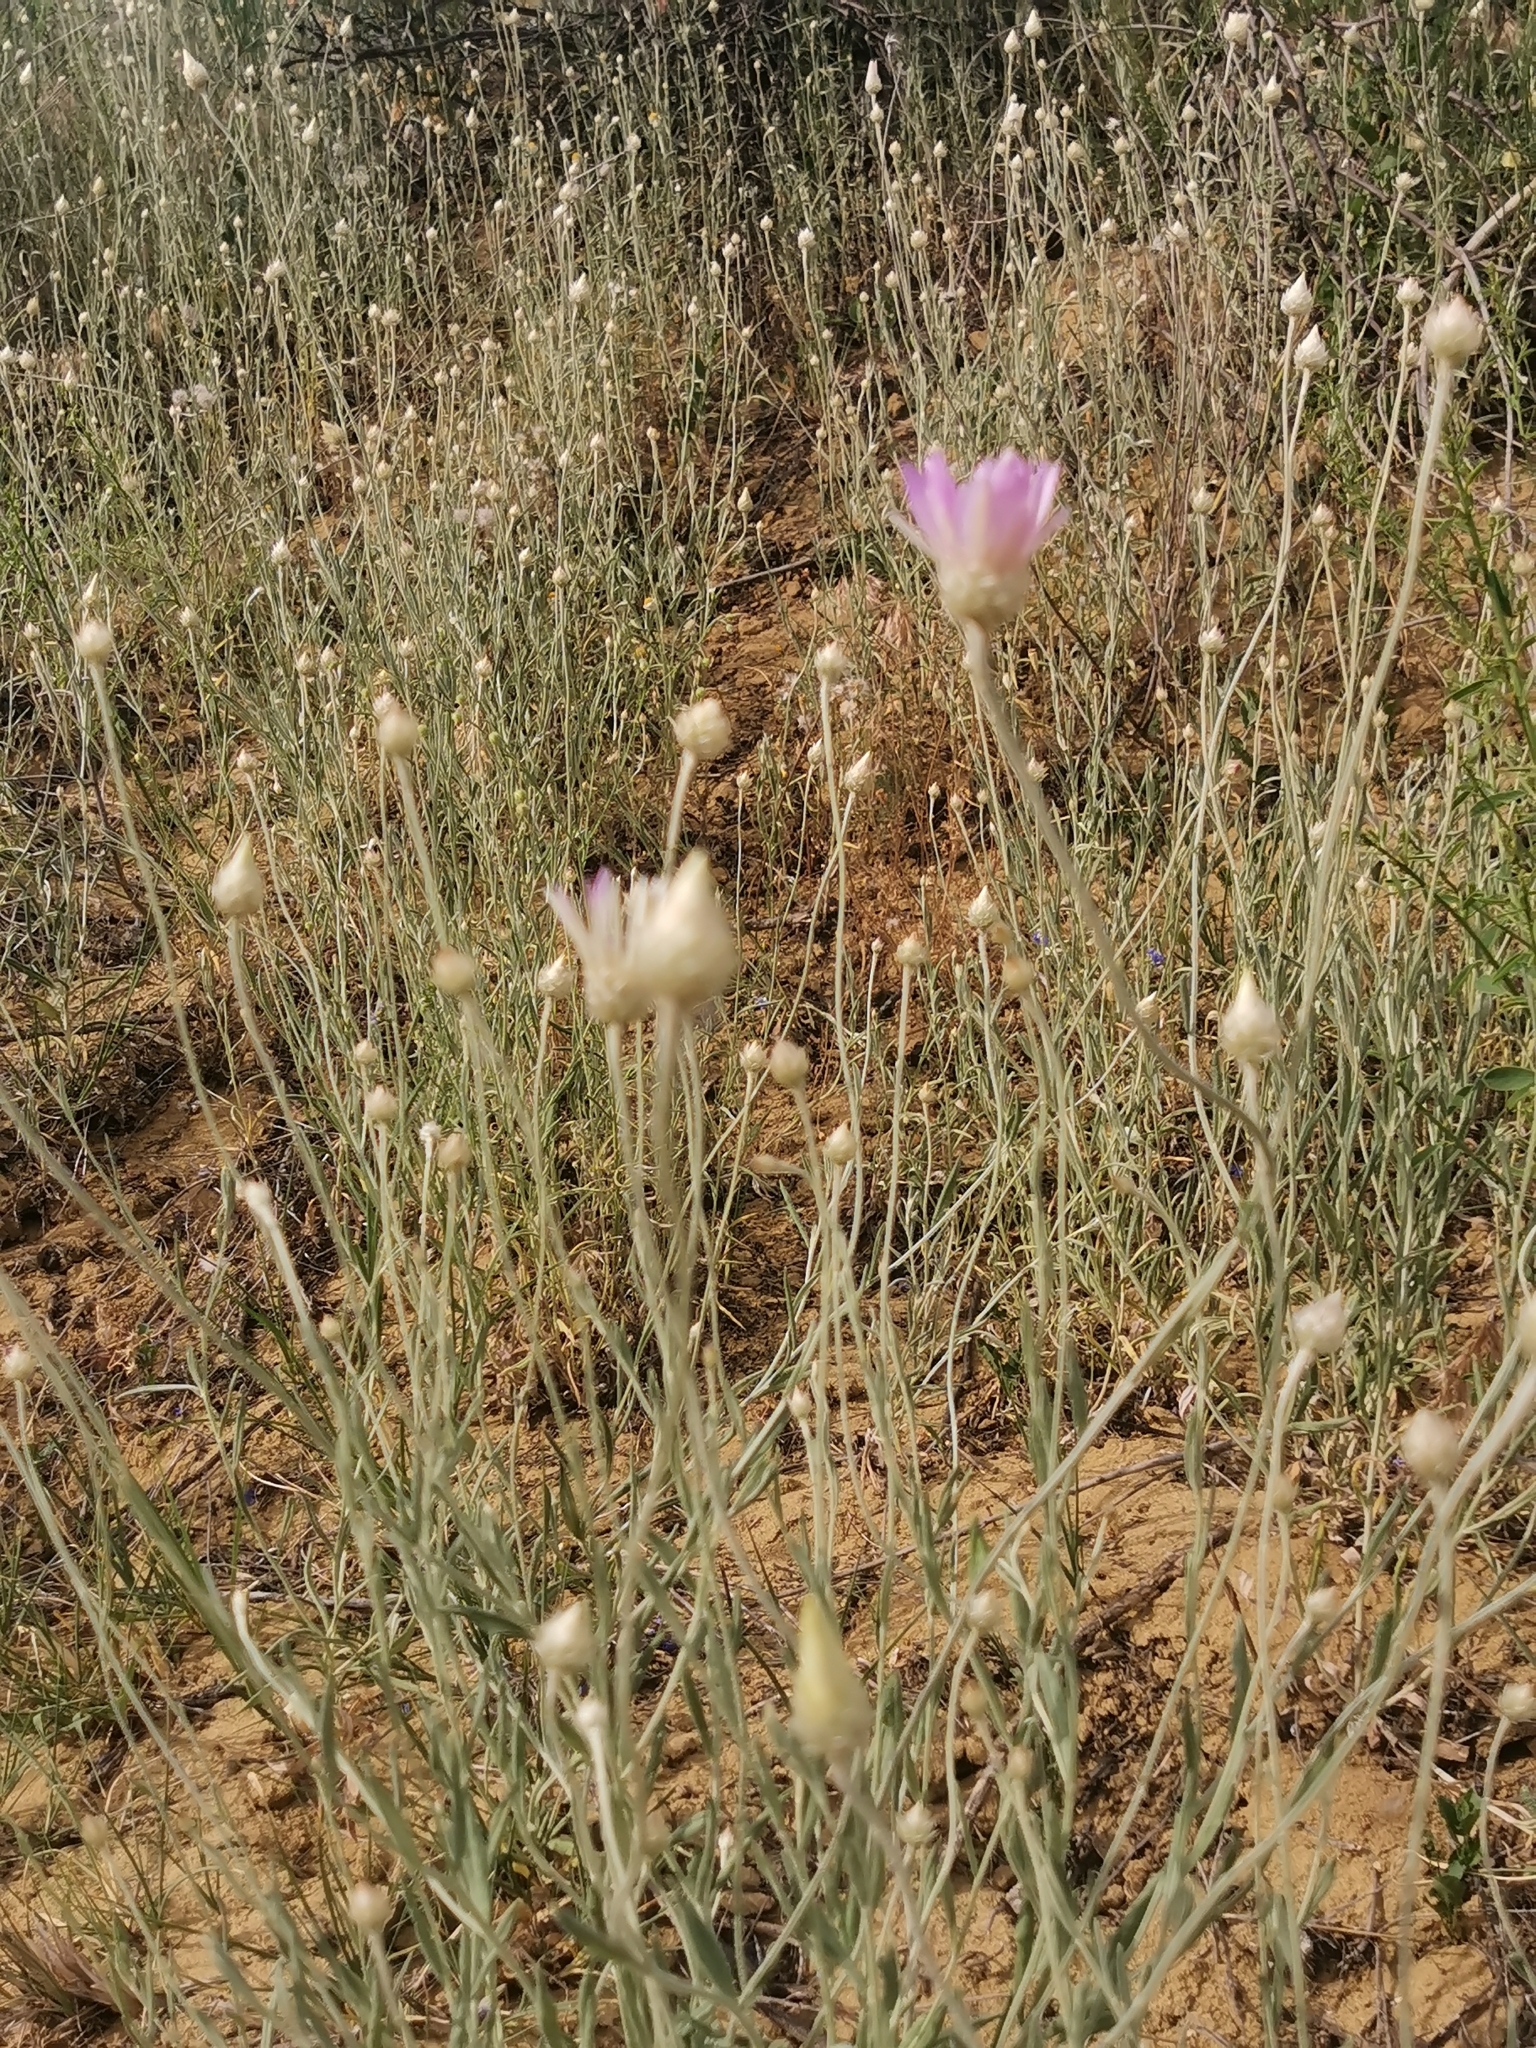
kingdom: Plantae
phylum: Tracheophyta
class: Magnoliopsida
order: Asterales
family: Asteraceae
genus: Xeranthemum
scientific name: Xeranthemum annuum
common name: Immortelle
